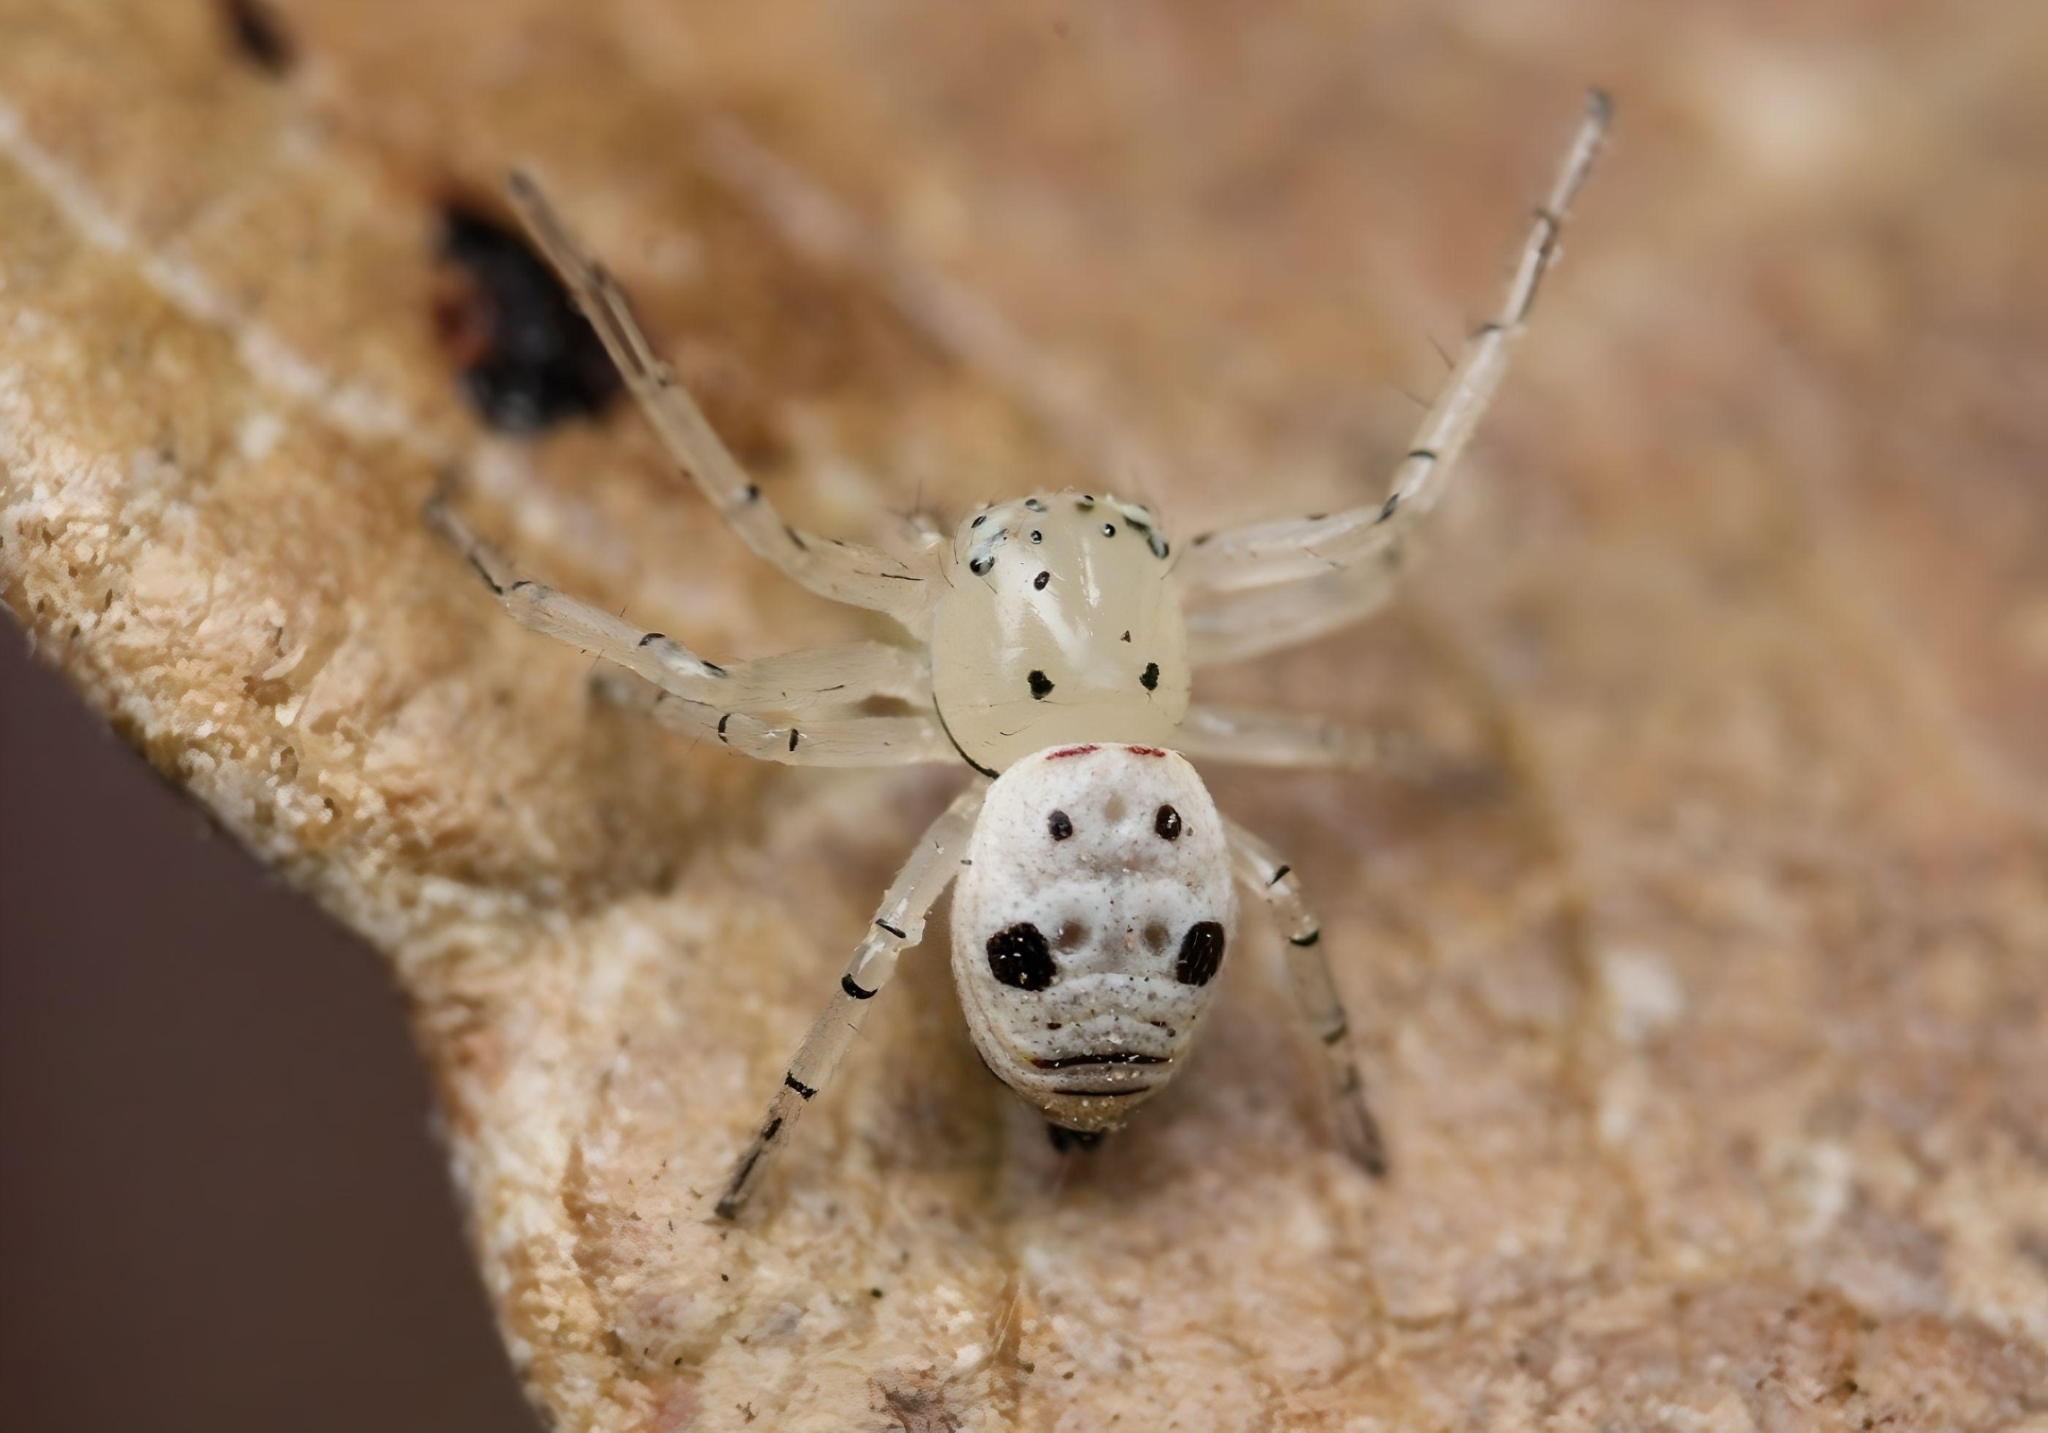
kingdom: Animalia
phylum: Arthropoda
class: Arachnida
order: Araneae
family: Thomisidae
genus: Firmicus
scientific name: Firmicus bragantinus
